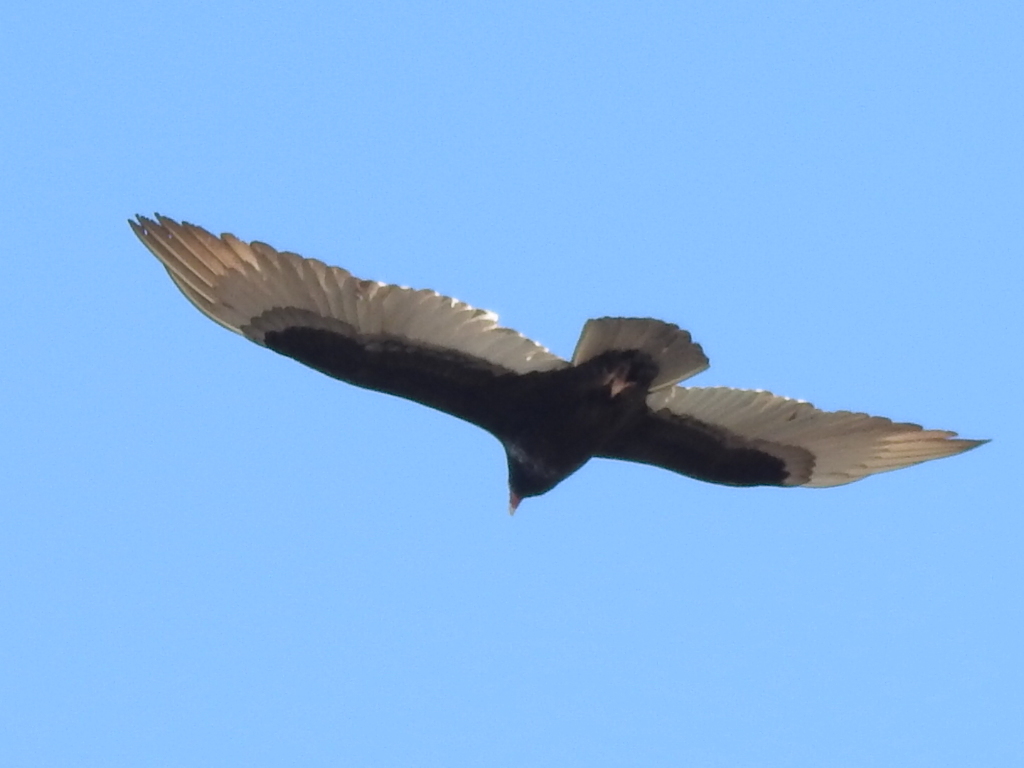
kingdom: Animalia
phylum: Chordata
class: Aves
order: Accipitriformes
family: Cathartidae
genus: Cathartes
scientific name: Cathartes aura
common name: Turkey vulture
